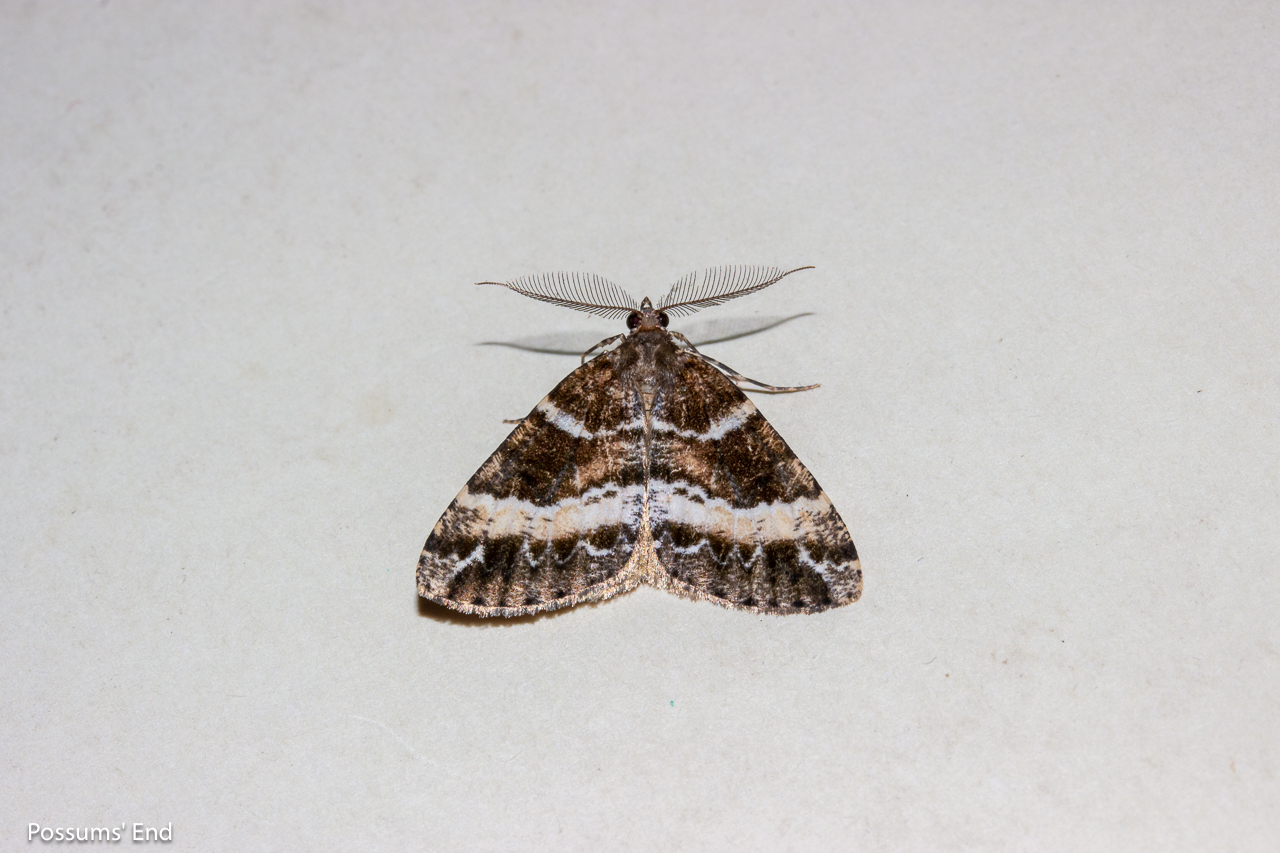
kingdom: Animalia
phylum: Arthropoda
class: Insecta
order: Lepidoptera
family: Geometridae
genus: Pseudocoremia
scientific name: Pseudocoremia
